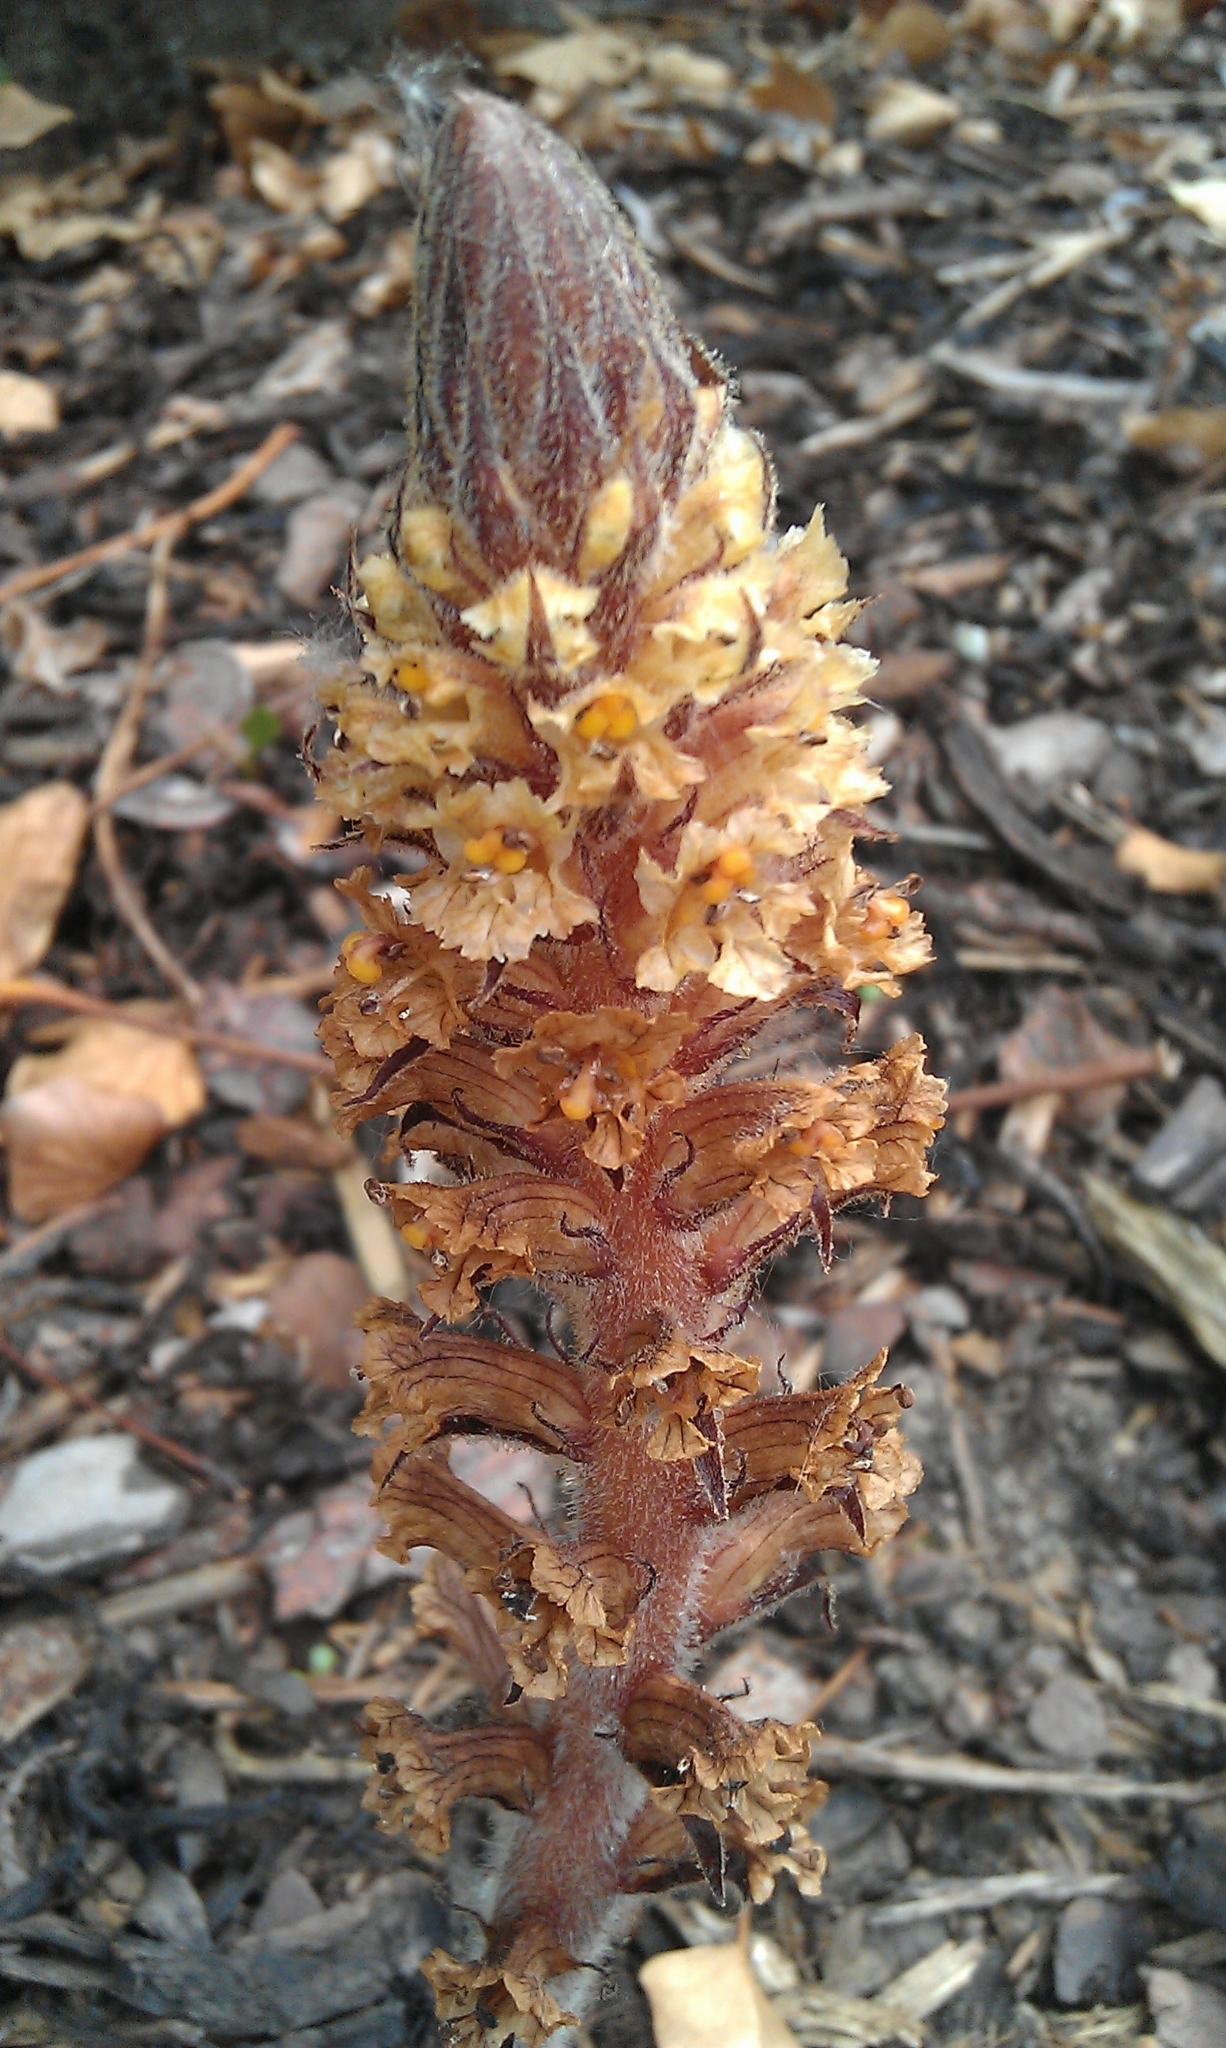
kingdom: Plantae
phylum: Tracheophyta
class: Magnoliopsida
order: Lamiales
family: Orobanchaceae
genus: Orobanche
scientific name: Orobanche hederae
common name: Ivy broomrape
